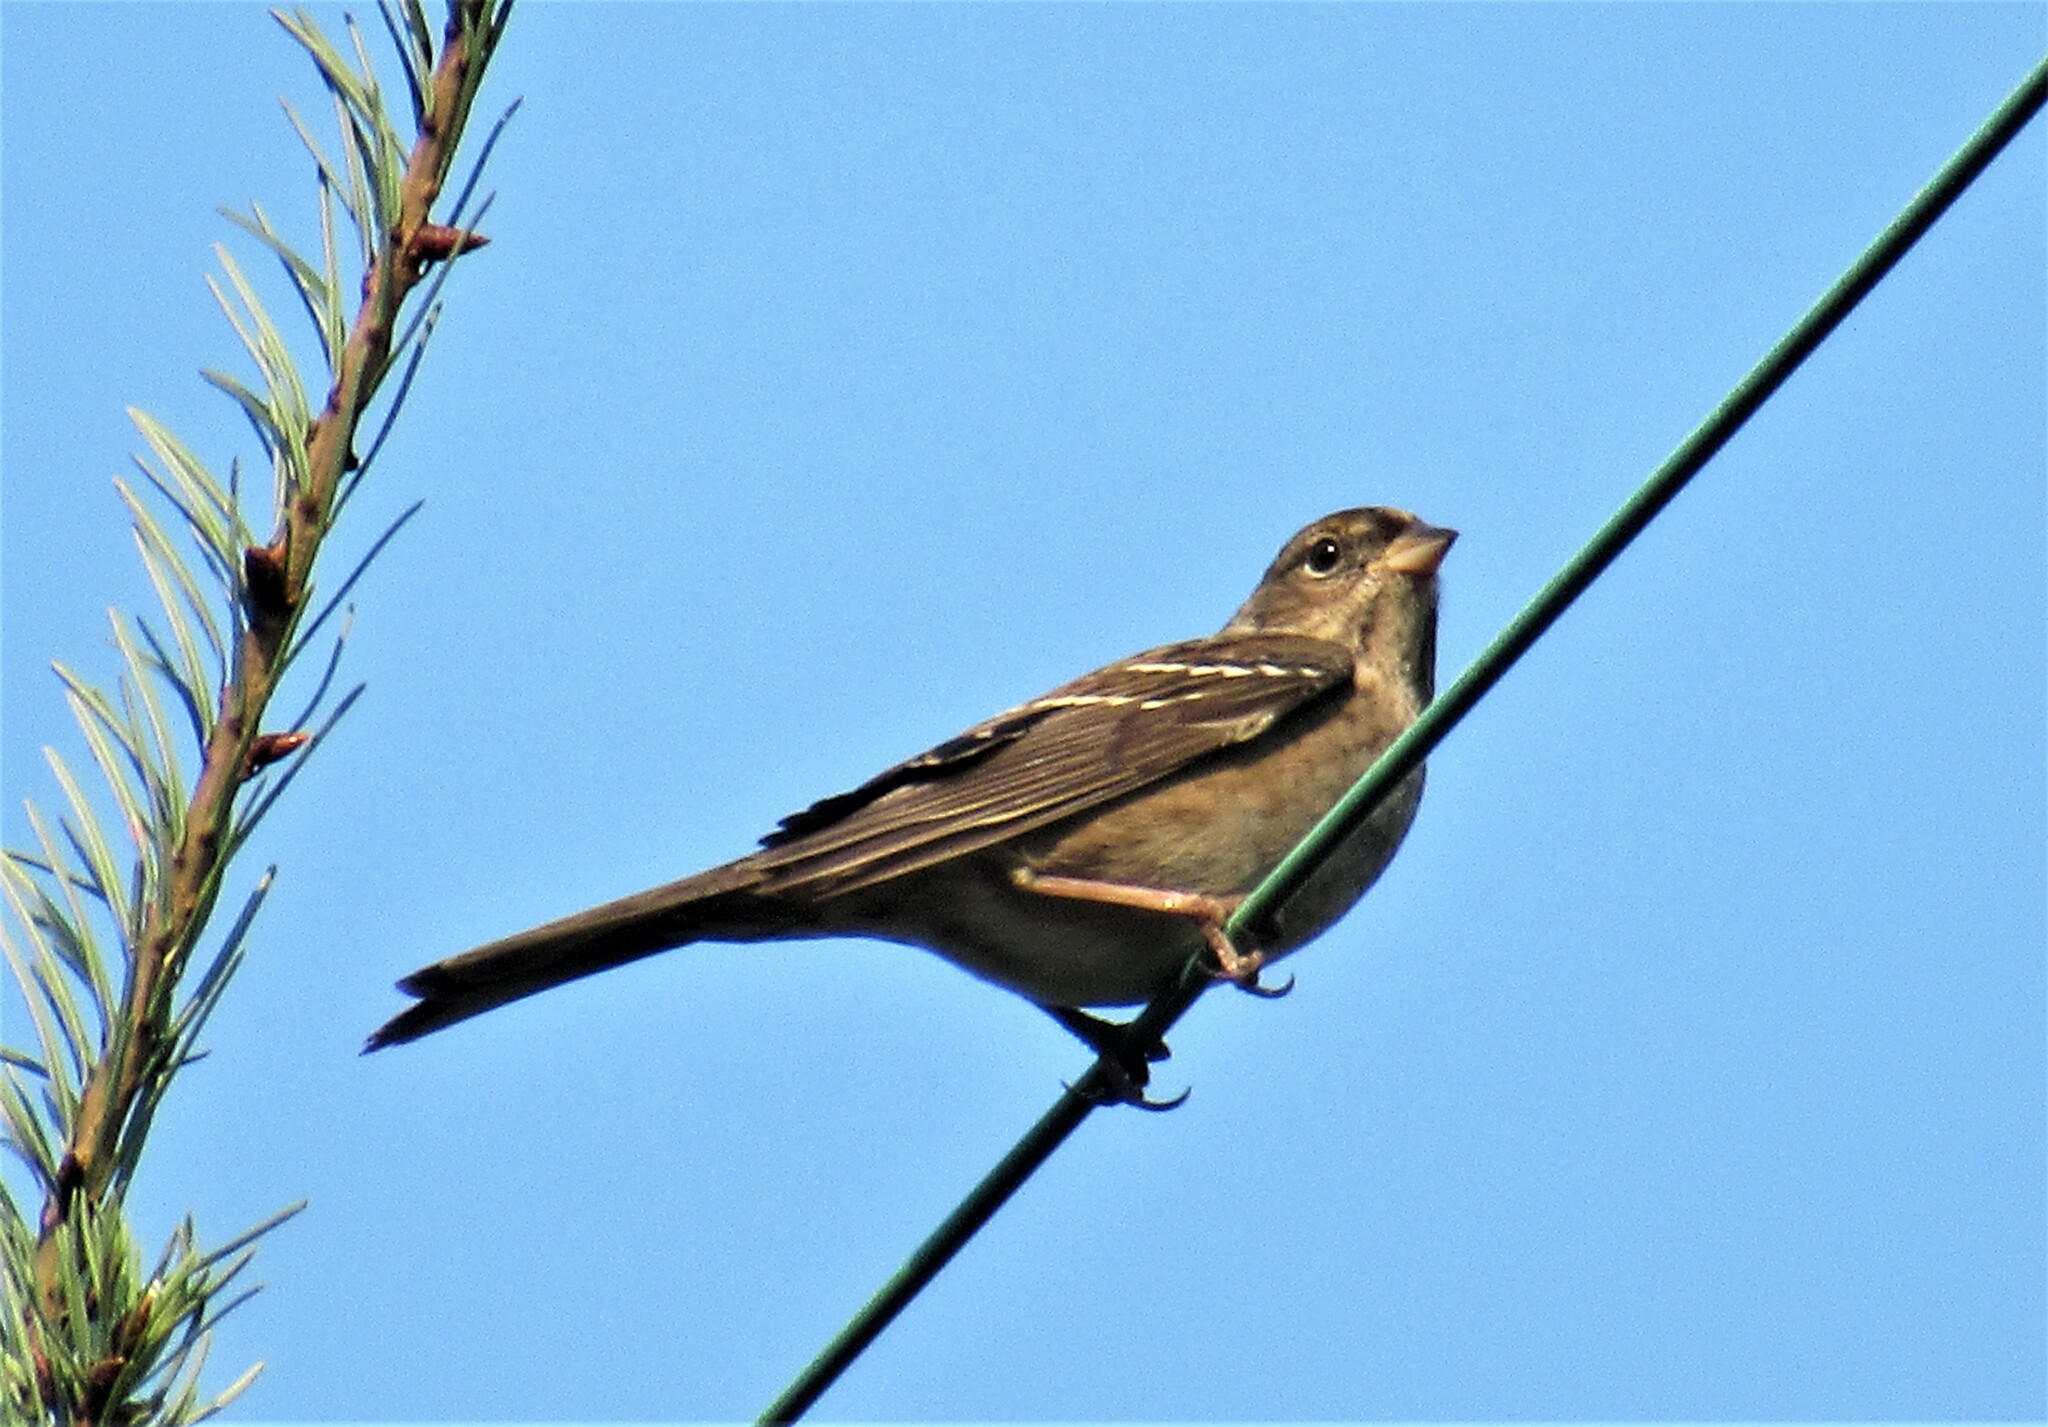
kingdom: Animalia
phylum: Chordata
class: Aves
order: Passeriformes
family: Passerellidae
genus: Zonotrichia
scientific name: Zonotrichia atricapilla
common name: Golden-crowned sparrow
